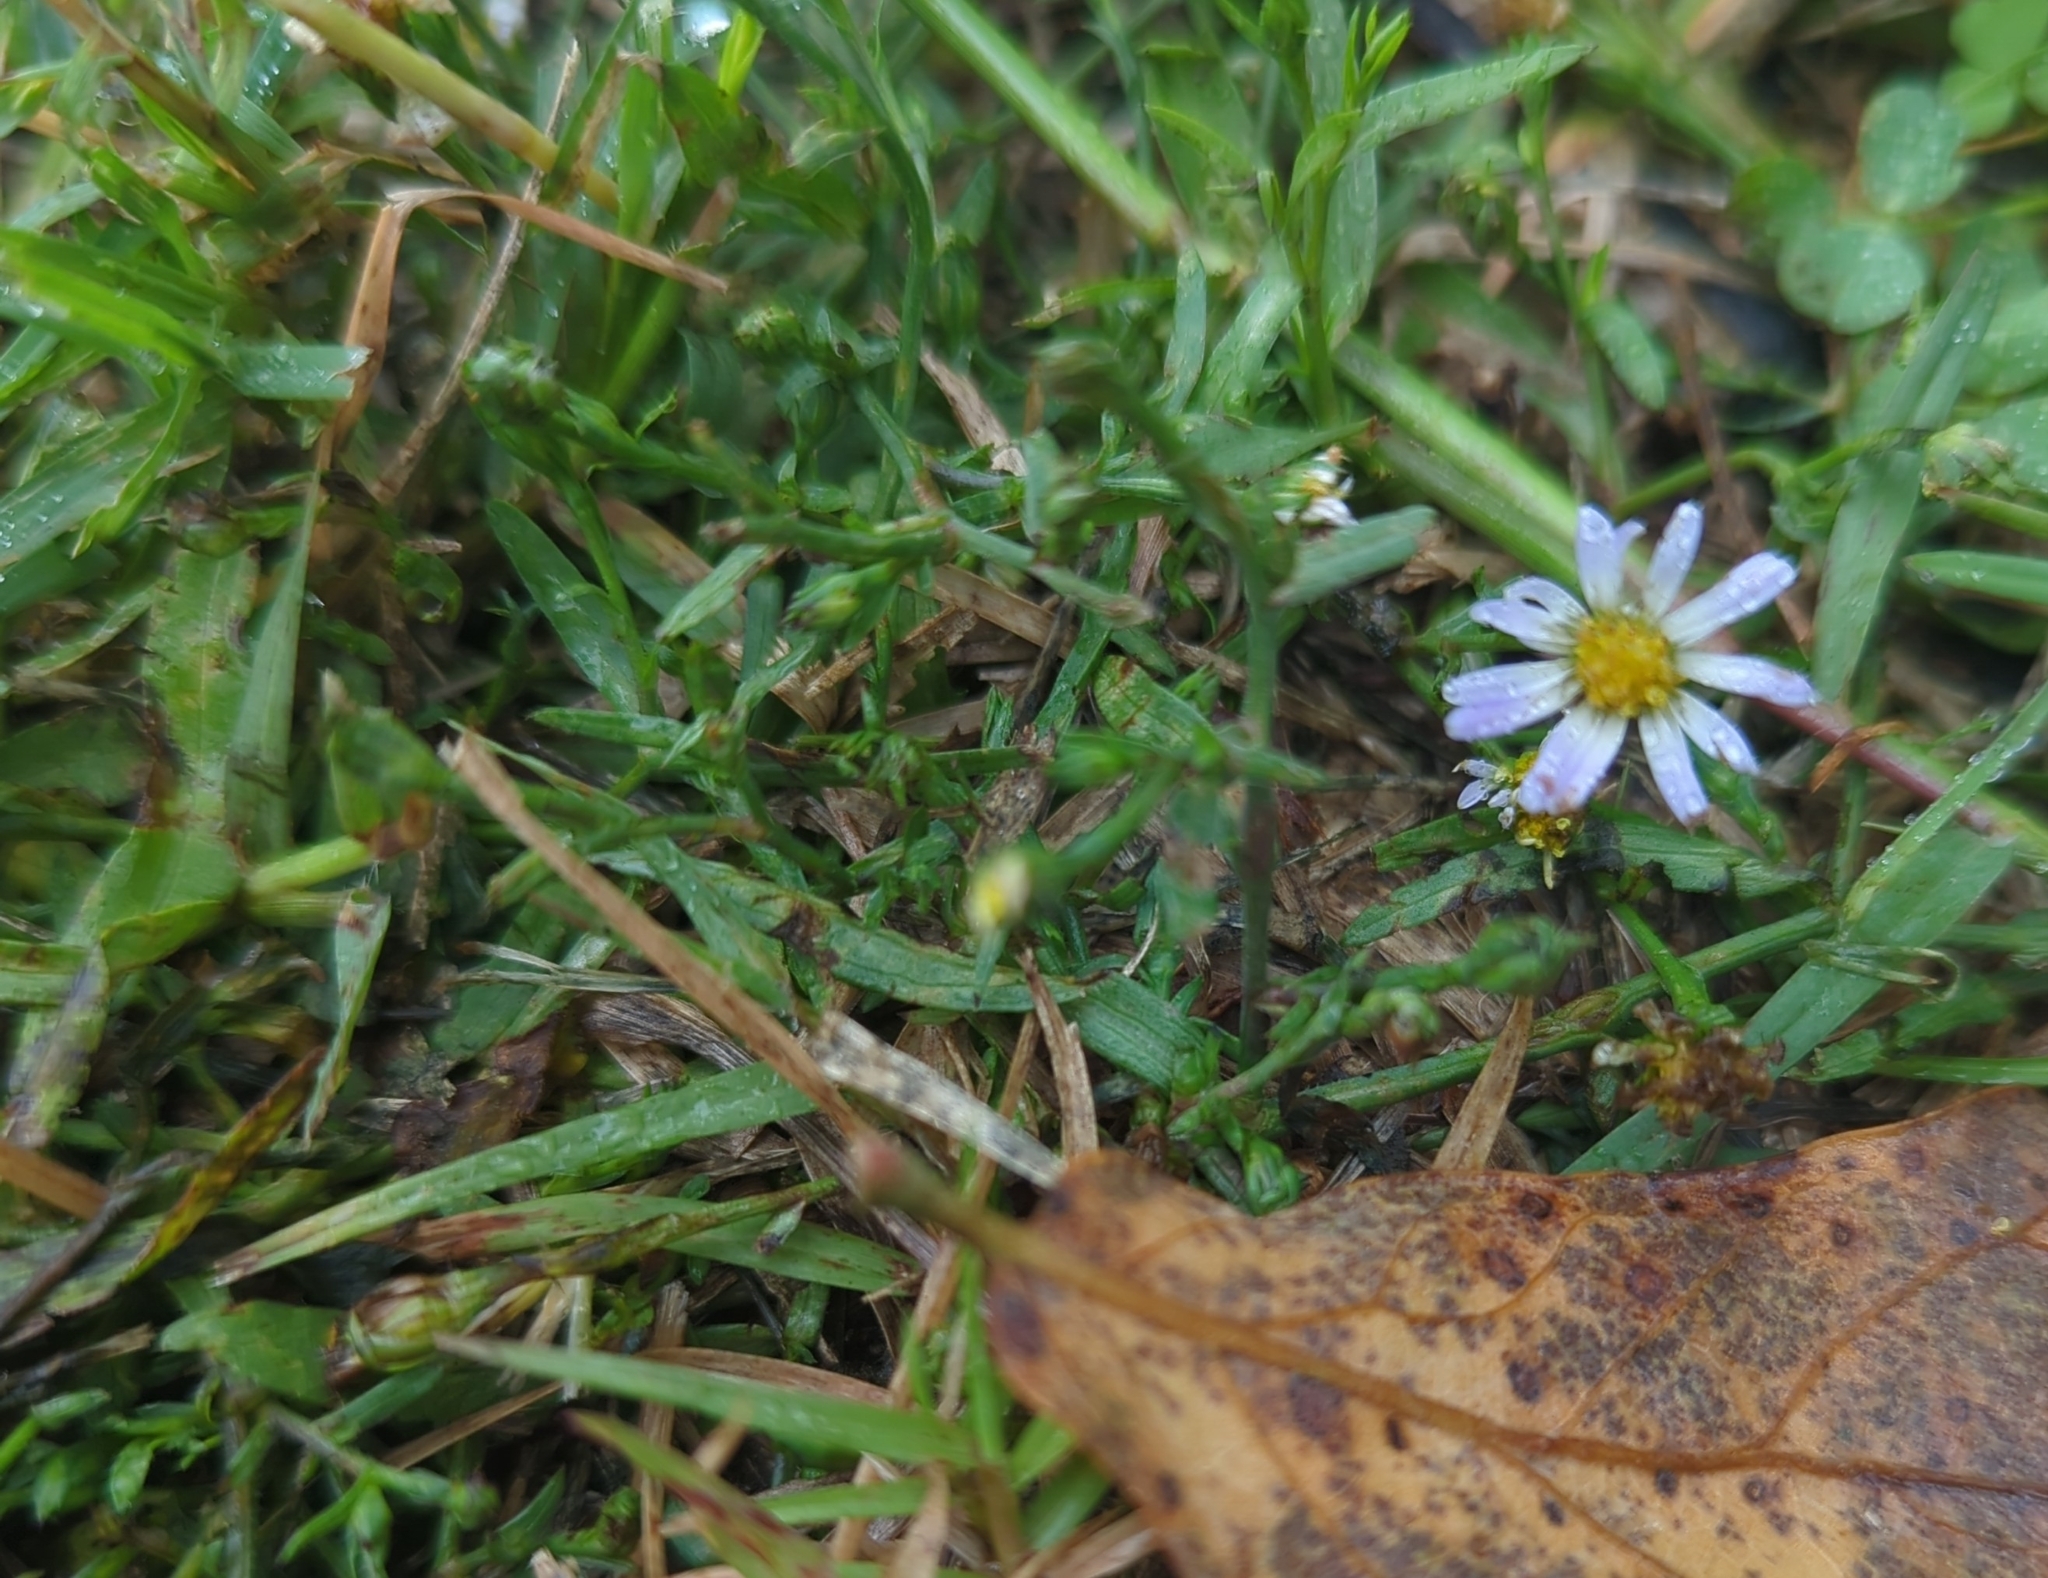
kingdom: Plantae
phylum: Tracheophyta
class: Magnoliopsida
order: Asterales
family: Asteraceae
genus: Symphyotrichum
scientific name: Symphyotrichum divaricatum
